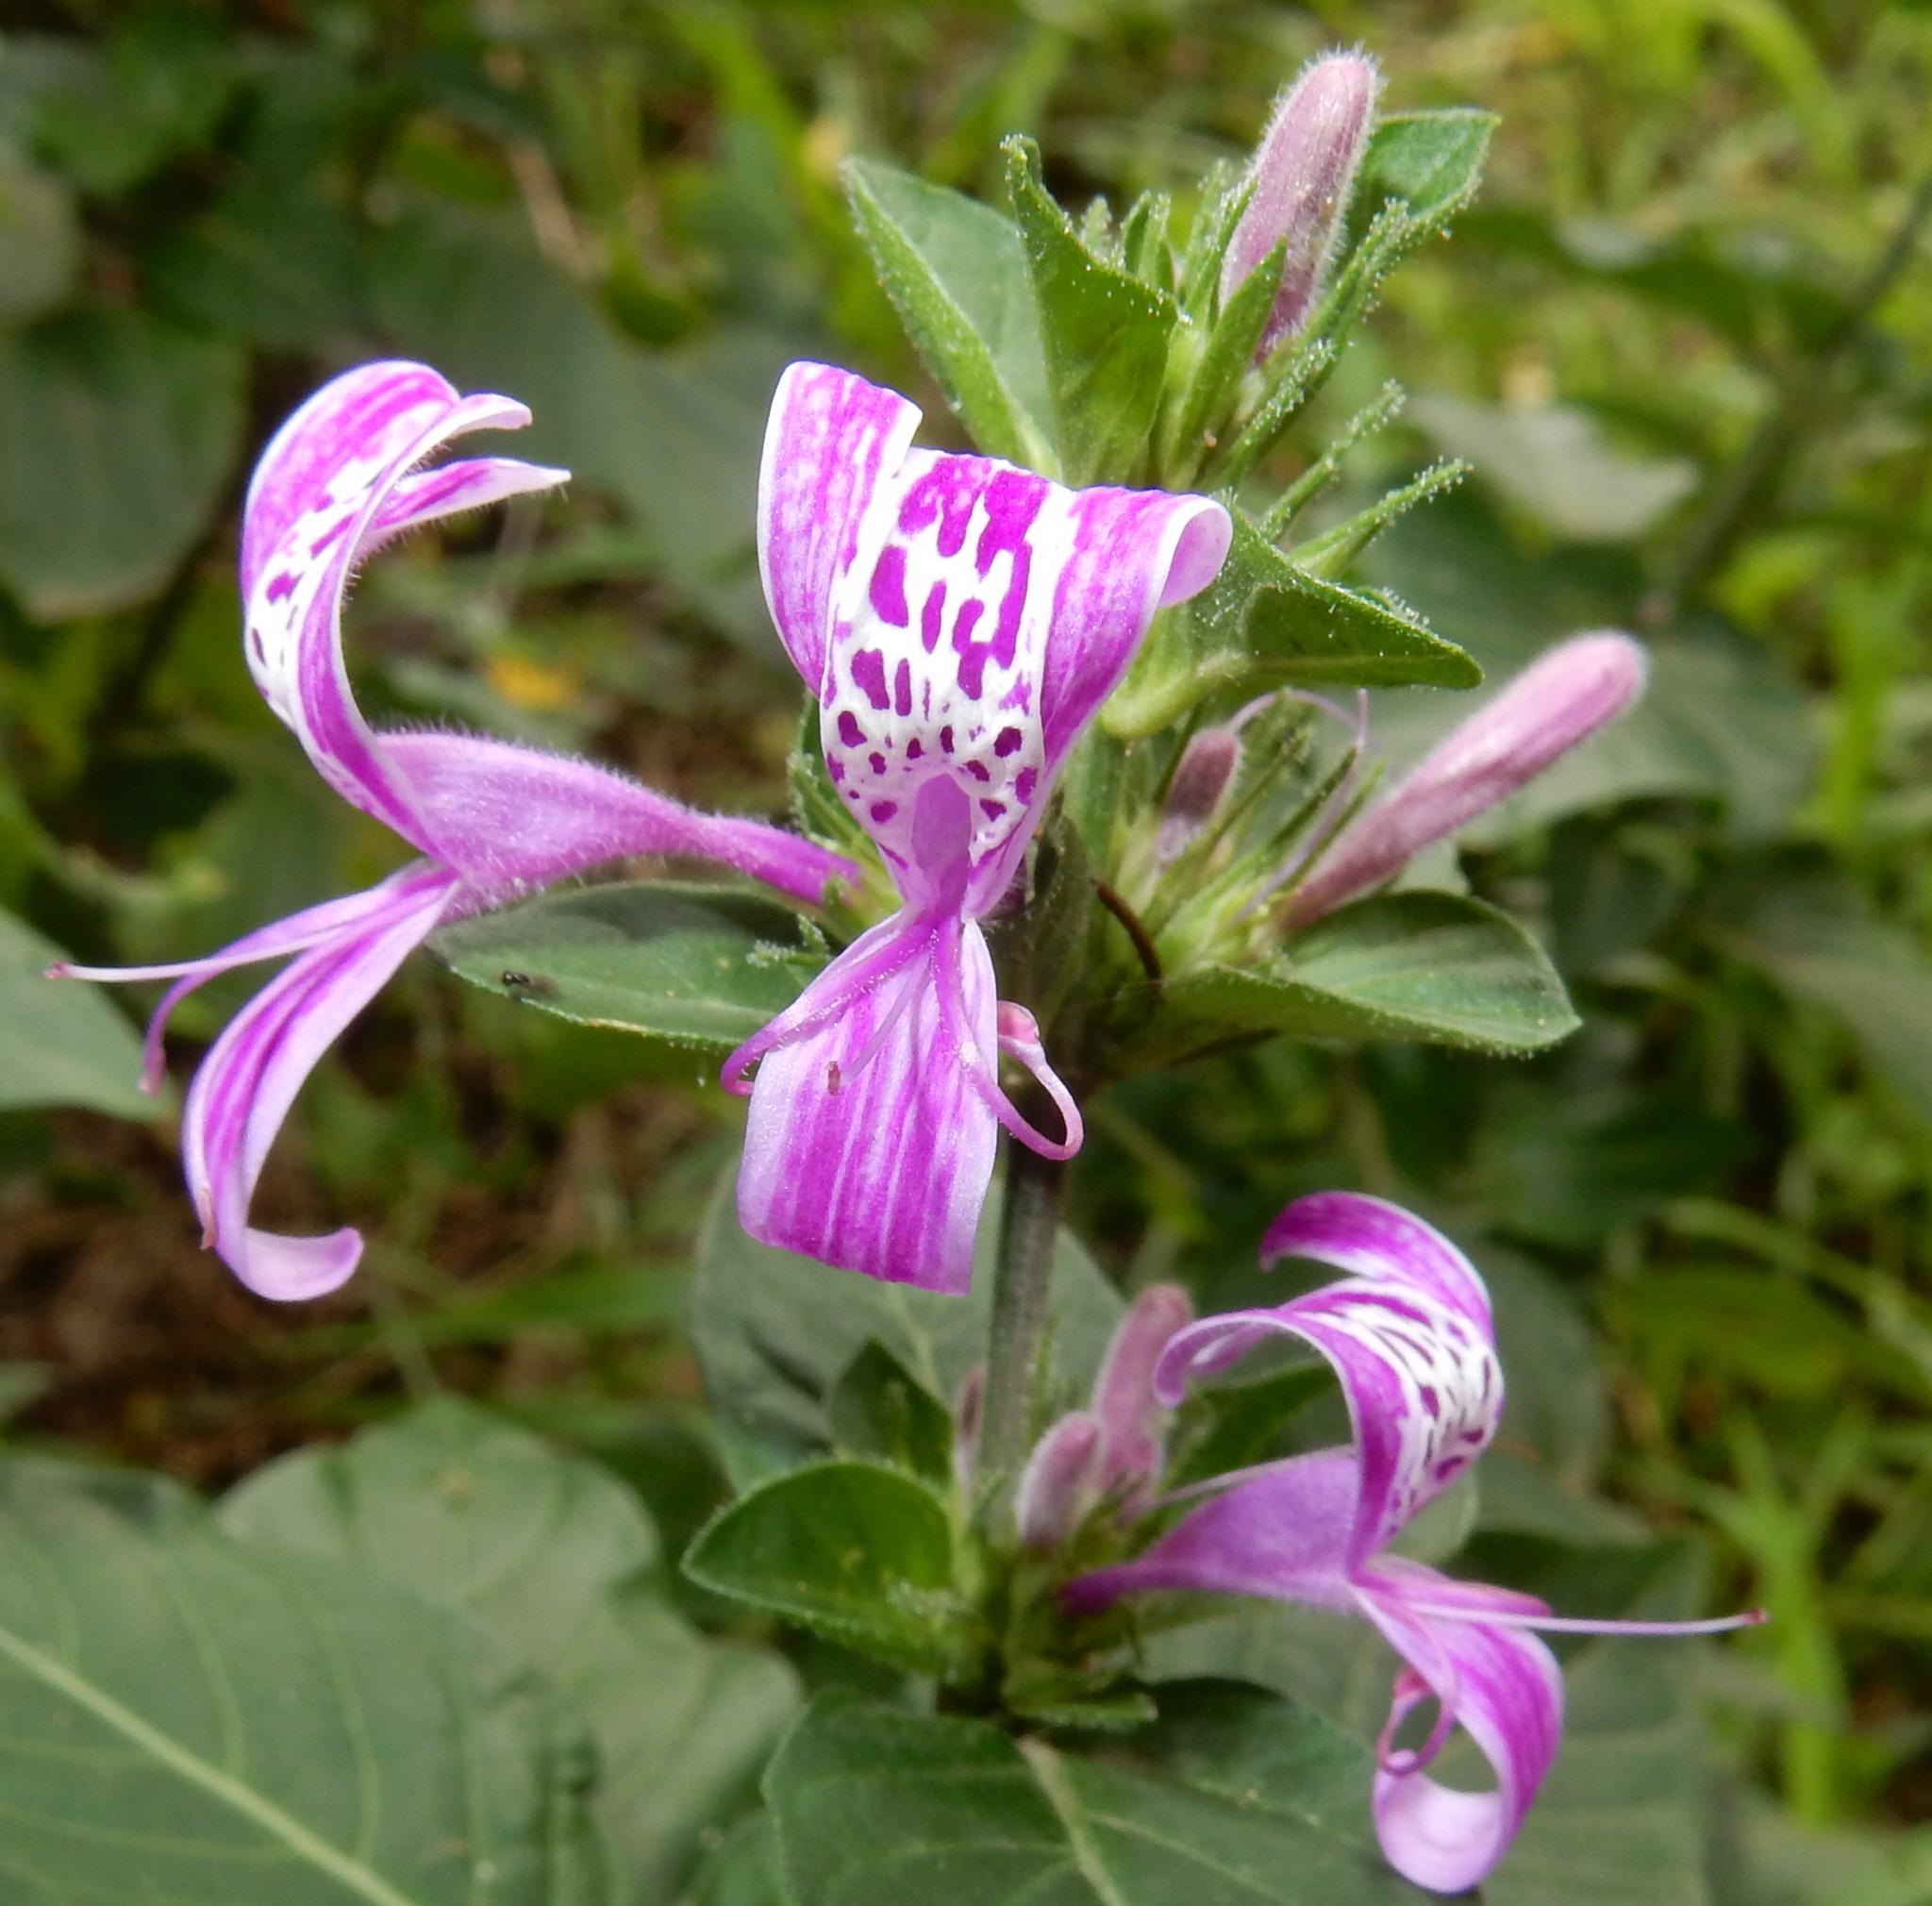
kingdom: Plantae
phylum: Tracheophyta
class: Magnoliopsida
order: Lamiales
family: Acanthaceae
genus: Hypoestes
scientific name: Hypoestes aristata
